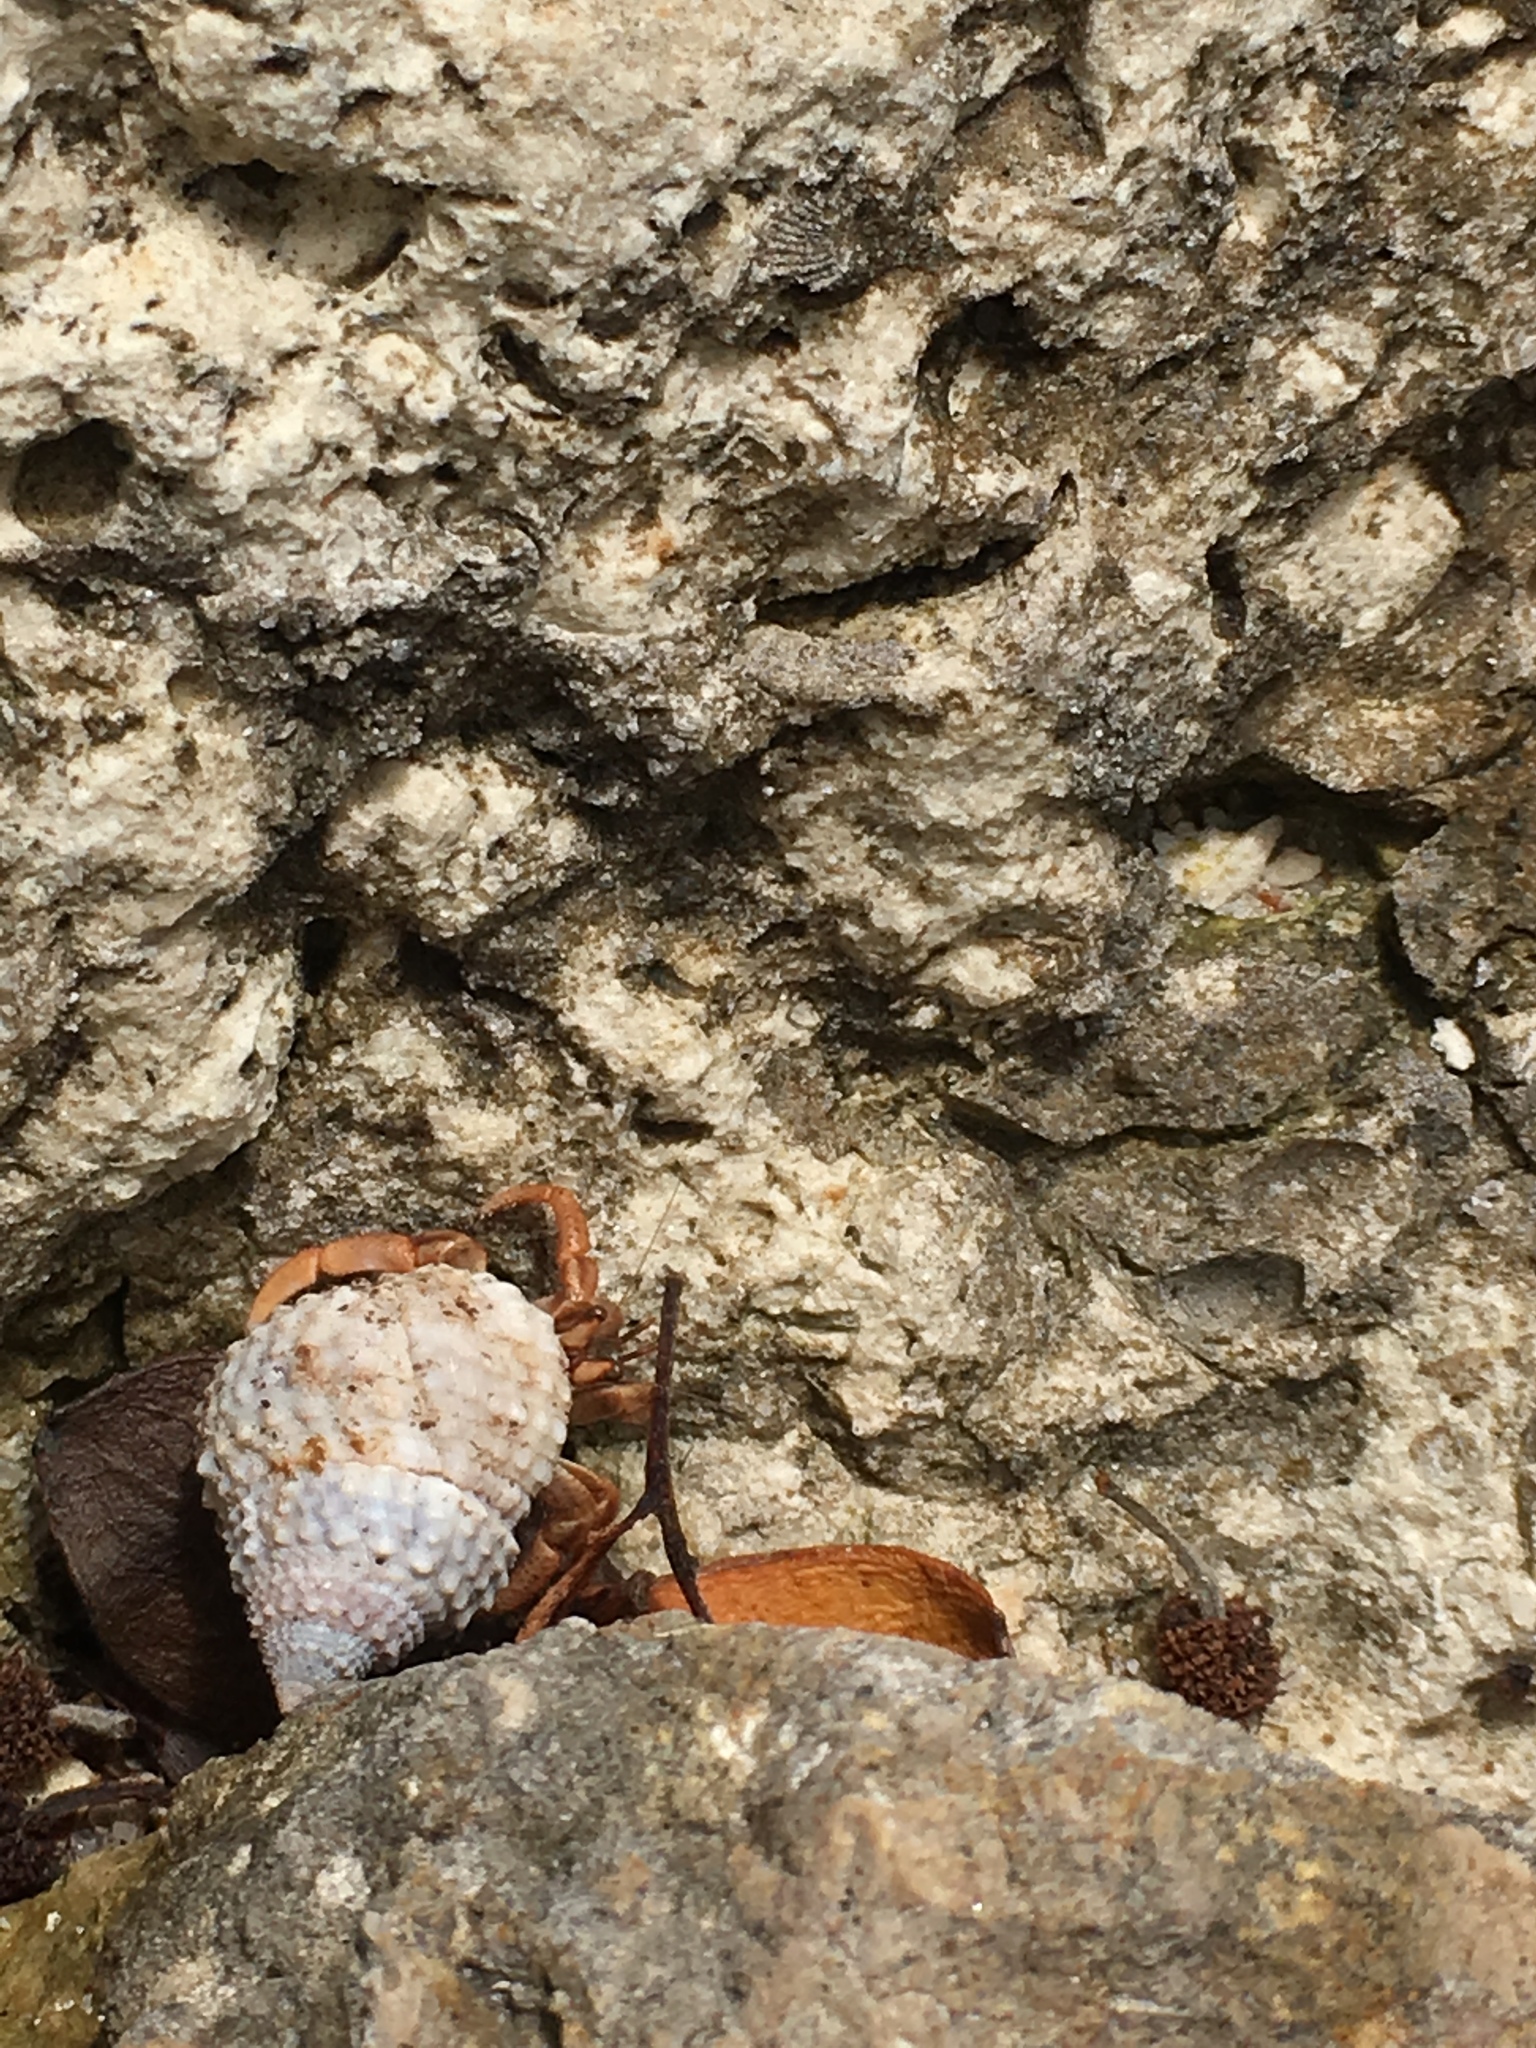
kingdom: Animalia
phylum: Arthropoda
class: Malacostraca
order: Decapoda
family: Coenobitidae
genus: Coenobita
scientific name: Coenobita clypeatus
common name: Caribbean hermit crab
